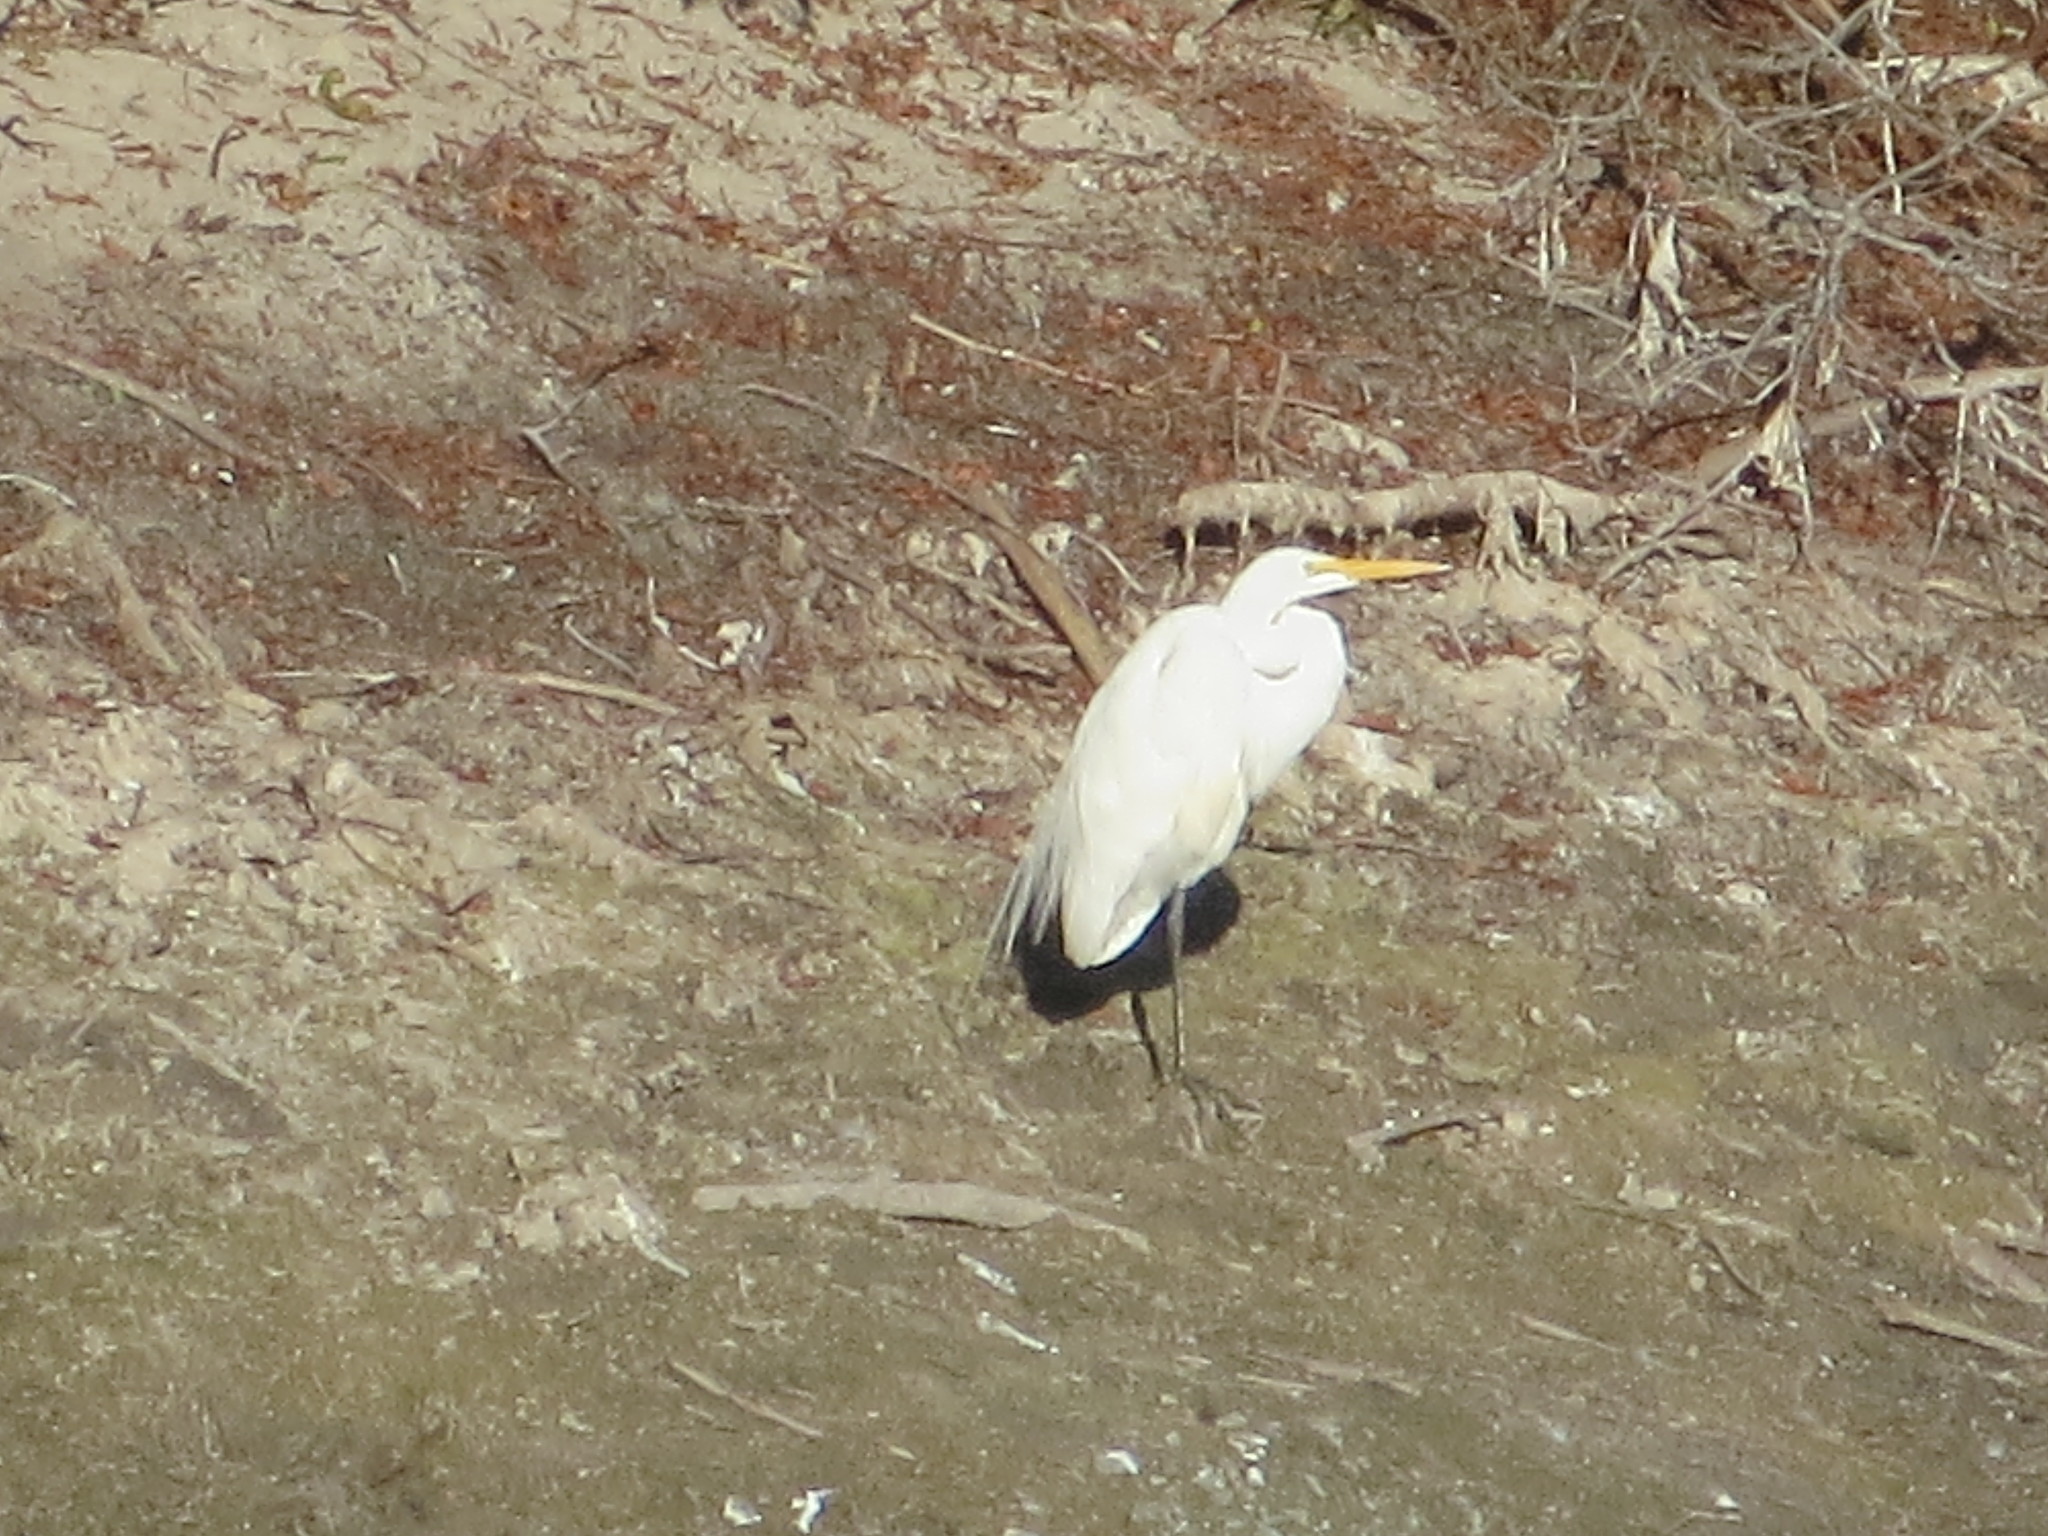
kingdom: Animalia
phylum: Chordata
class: Aves
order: Pelecaniformes
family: Ardeidae
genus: Ardea
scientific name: Ardea alba
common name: Great egret
